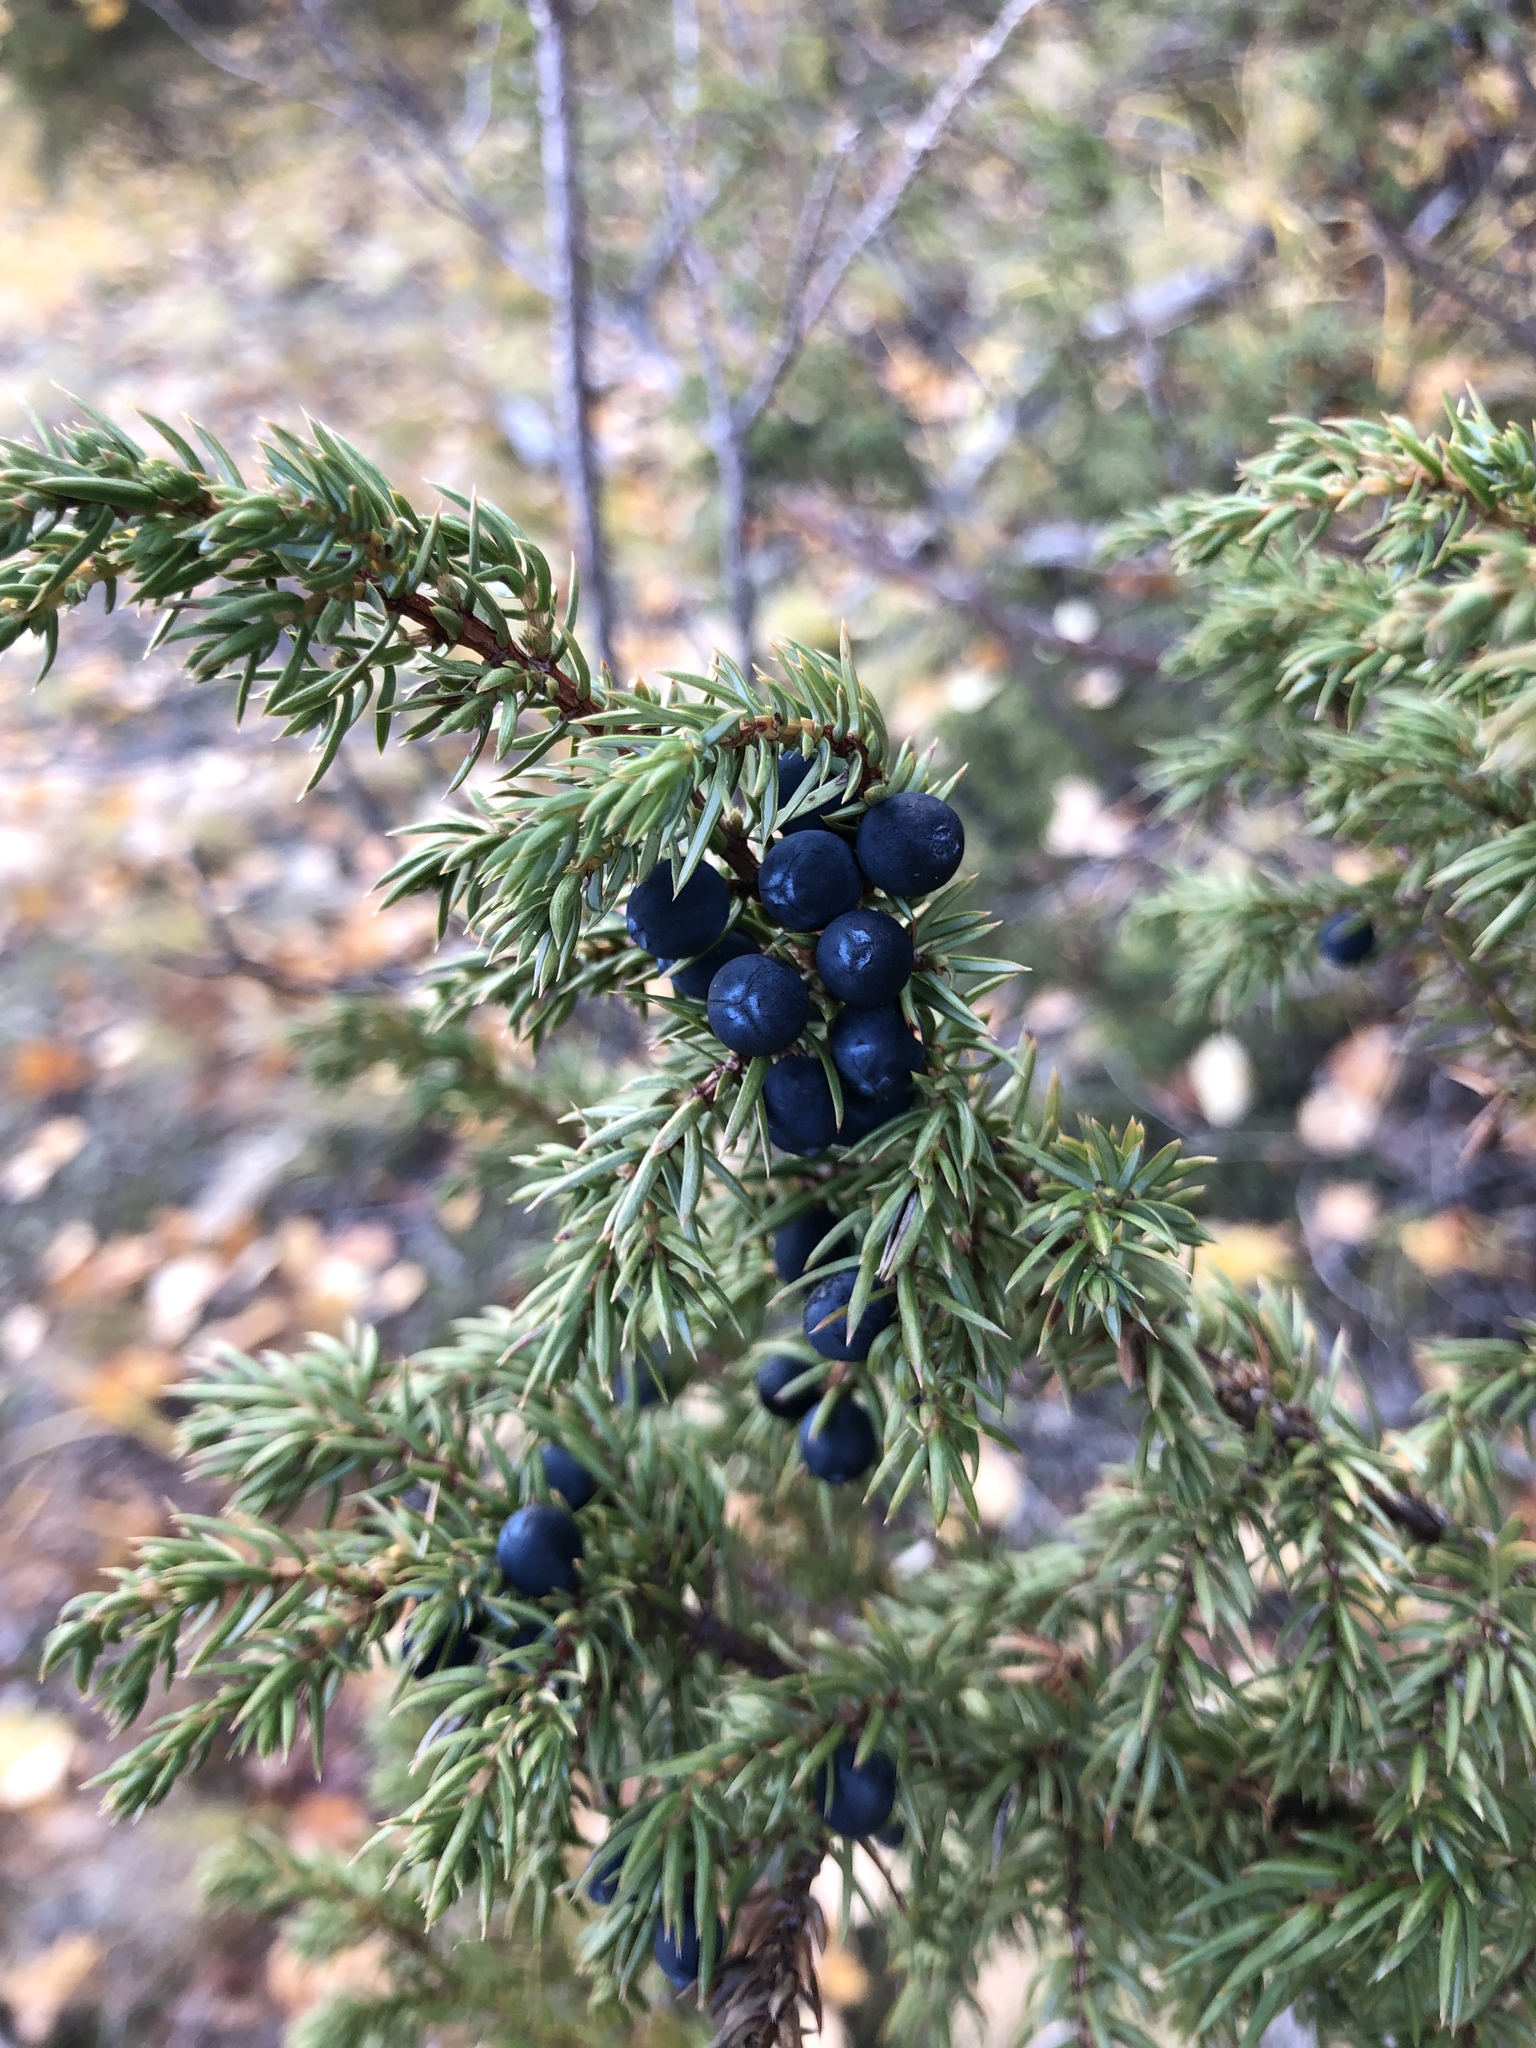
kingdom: Plantae
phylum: Tracheophyta
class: Pinopsida
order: Pinales
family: Cupressaceae
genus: Juniperus
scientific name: Juniperus communis
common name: Common juniper
